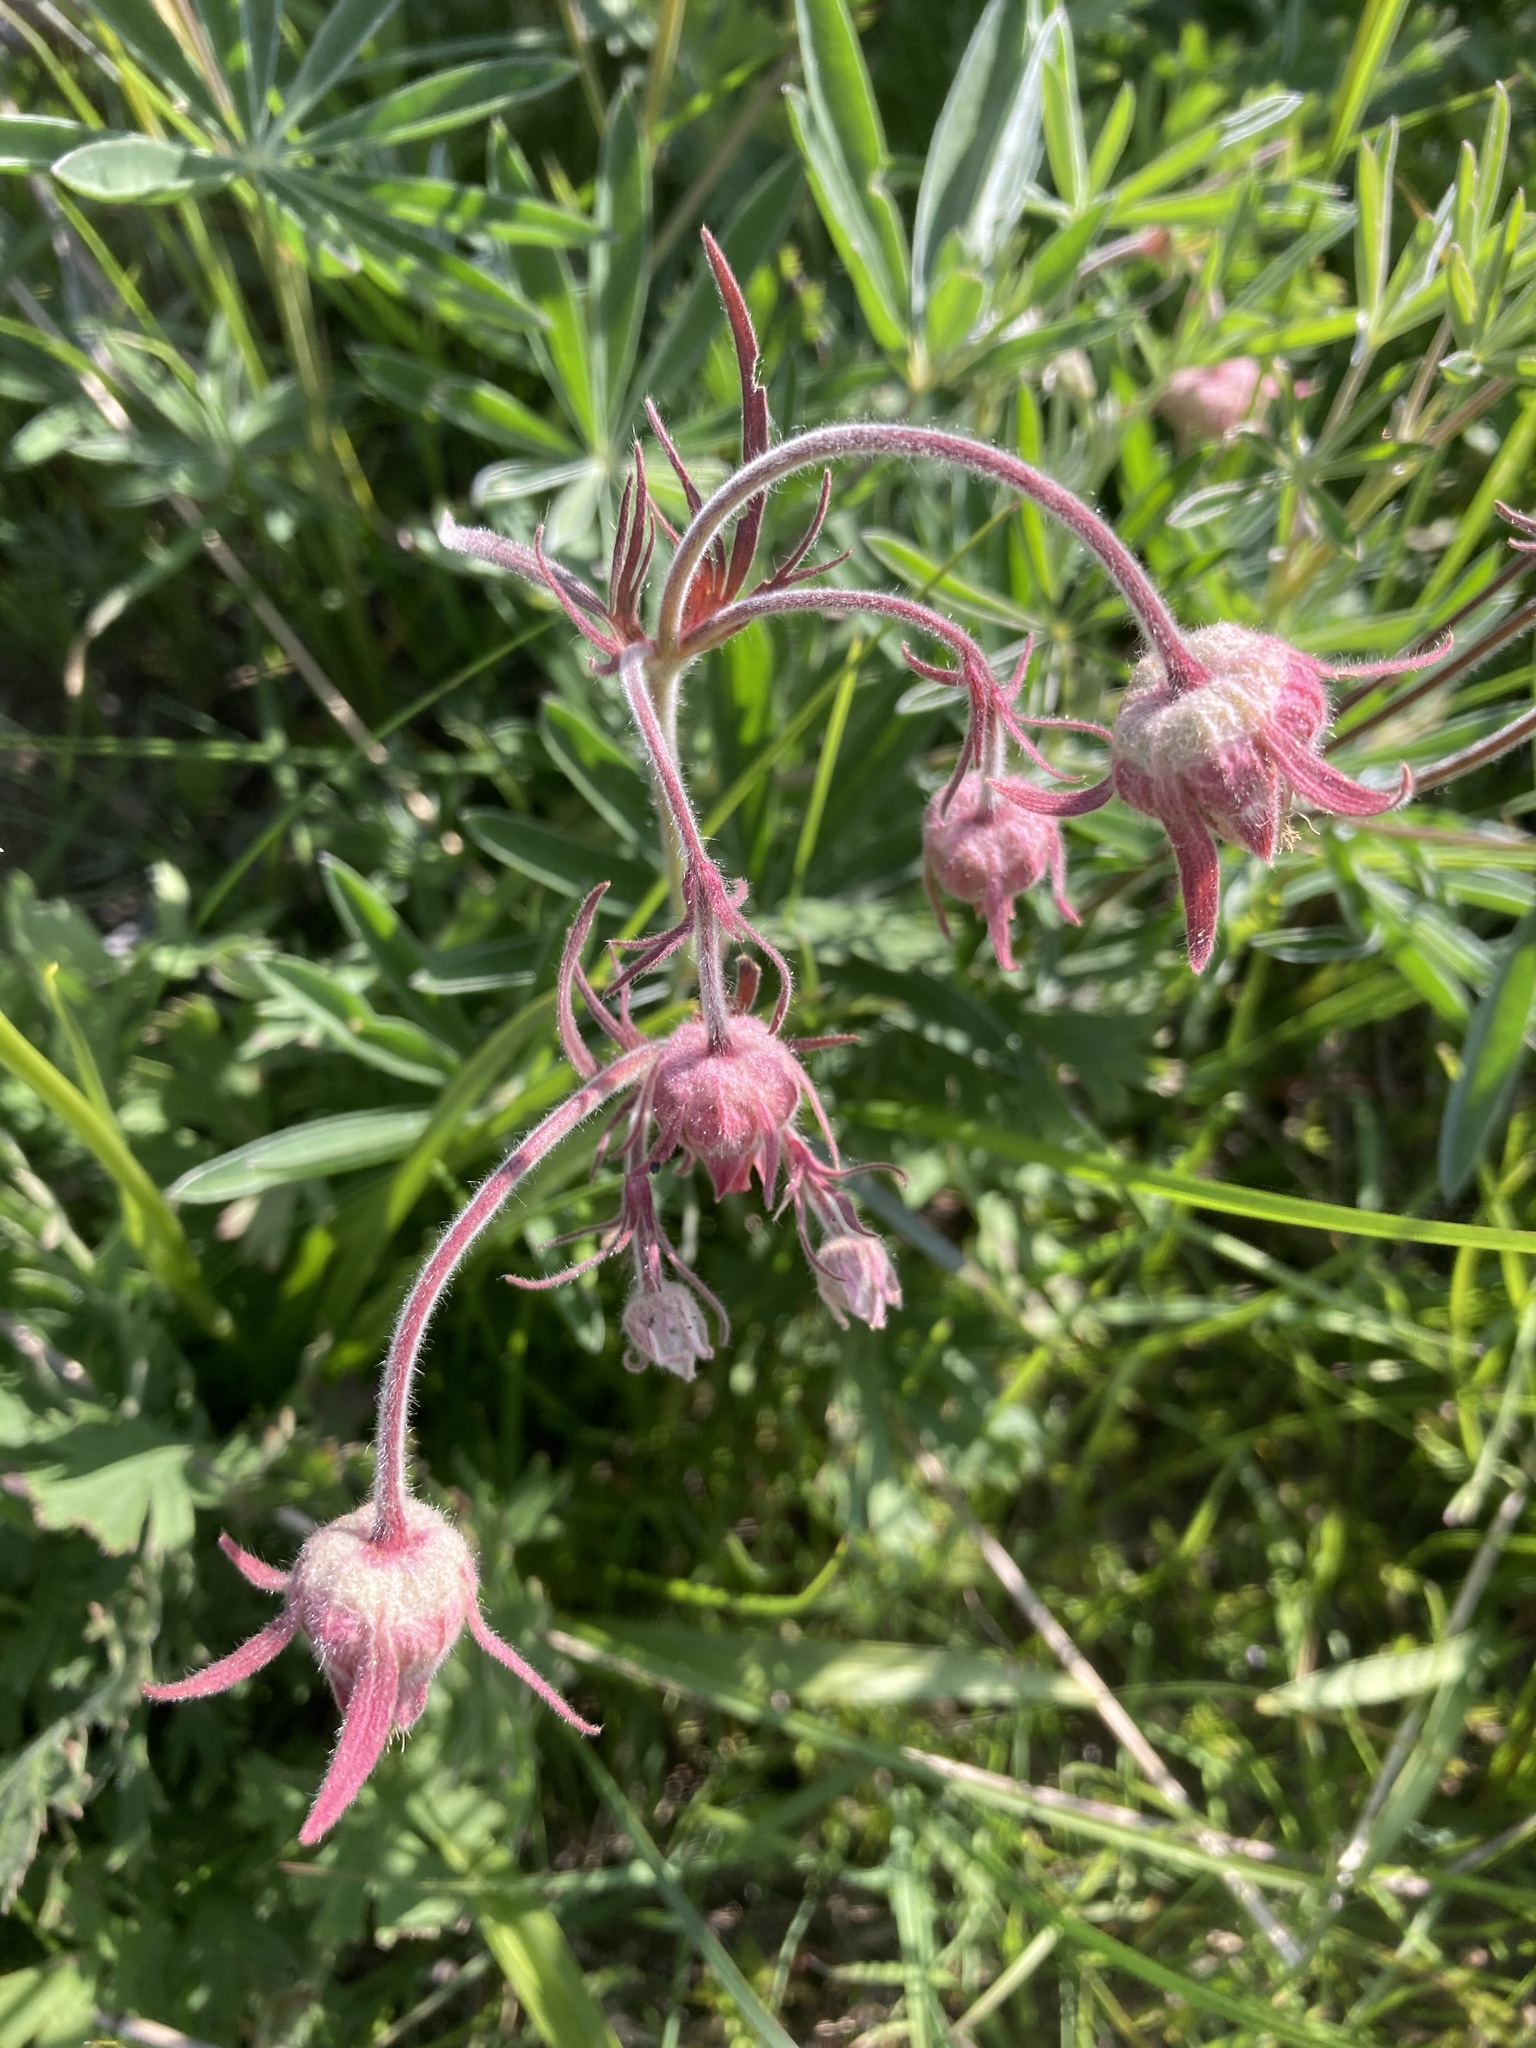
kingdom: Plantae
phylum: Tracheophyta
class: Magnoliopsida
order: Rosales
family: Rosaceae
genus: Geum
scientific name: Geum triflorum
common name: Old man's whiskers
